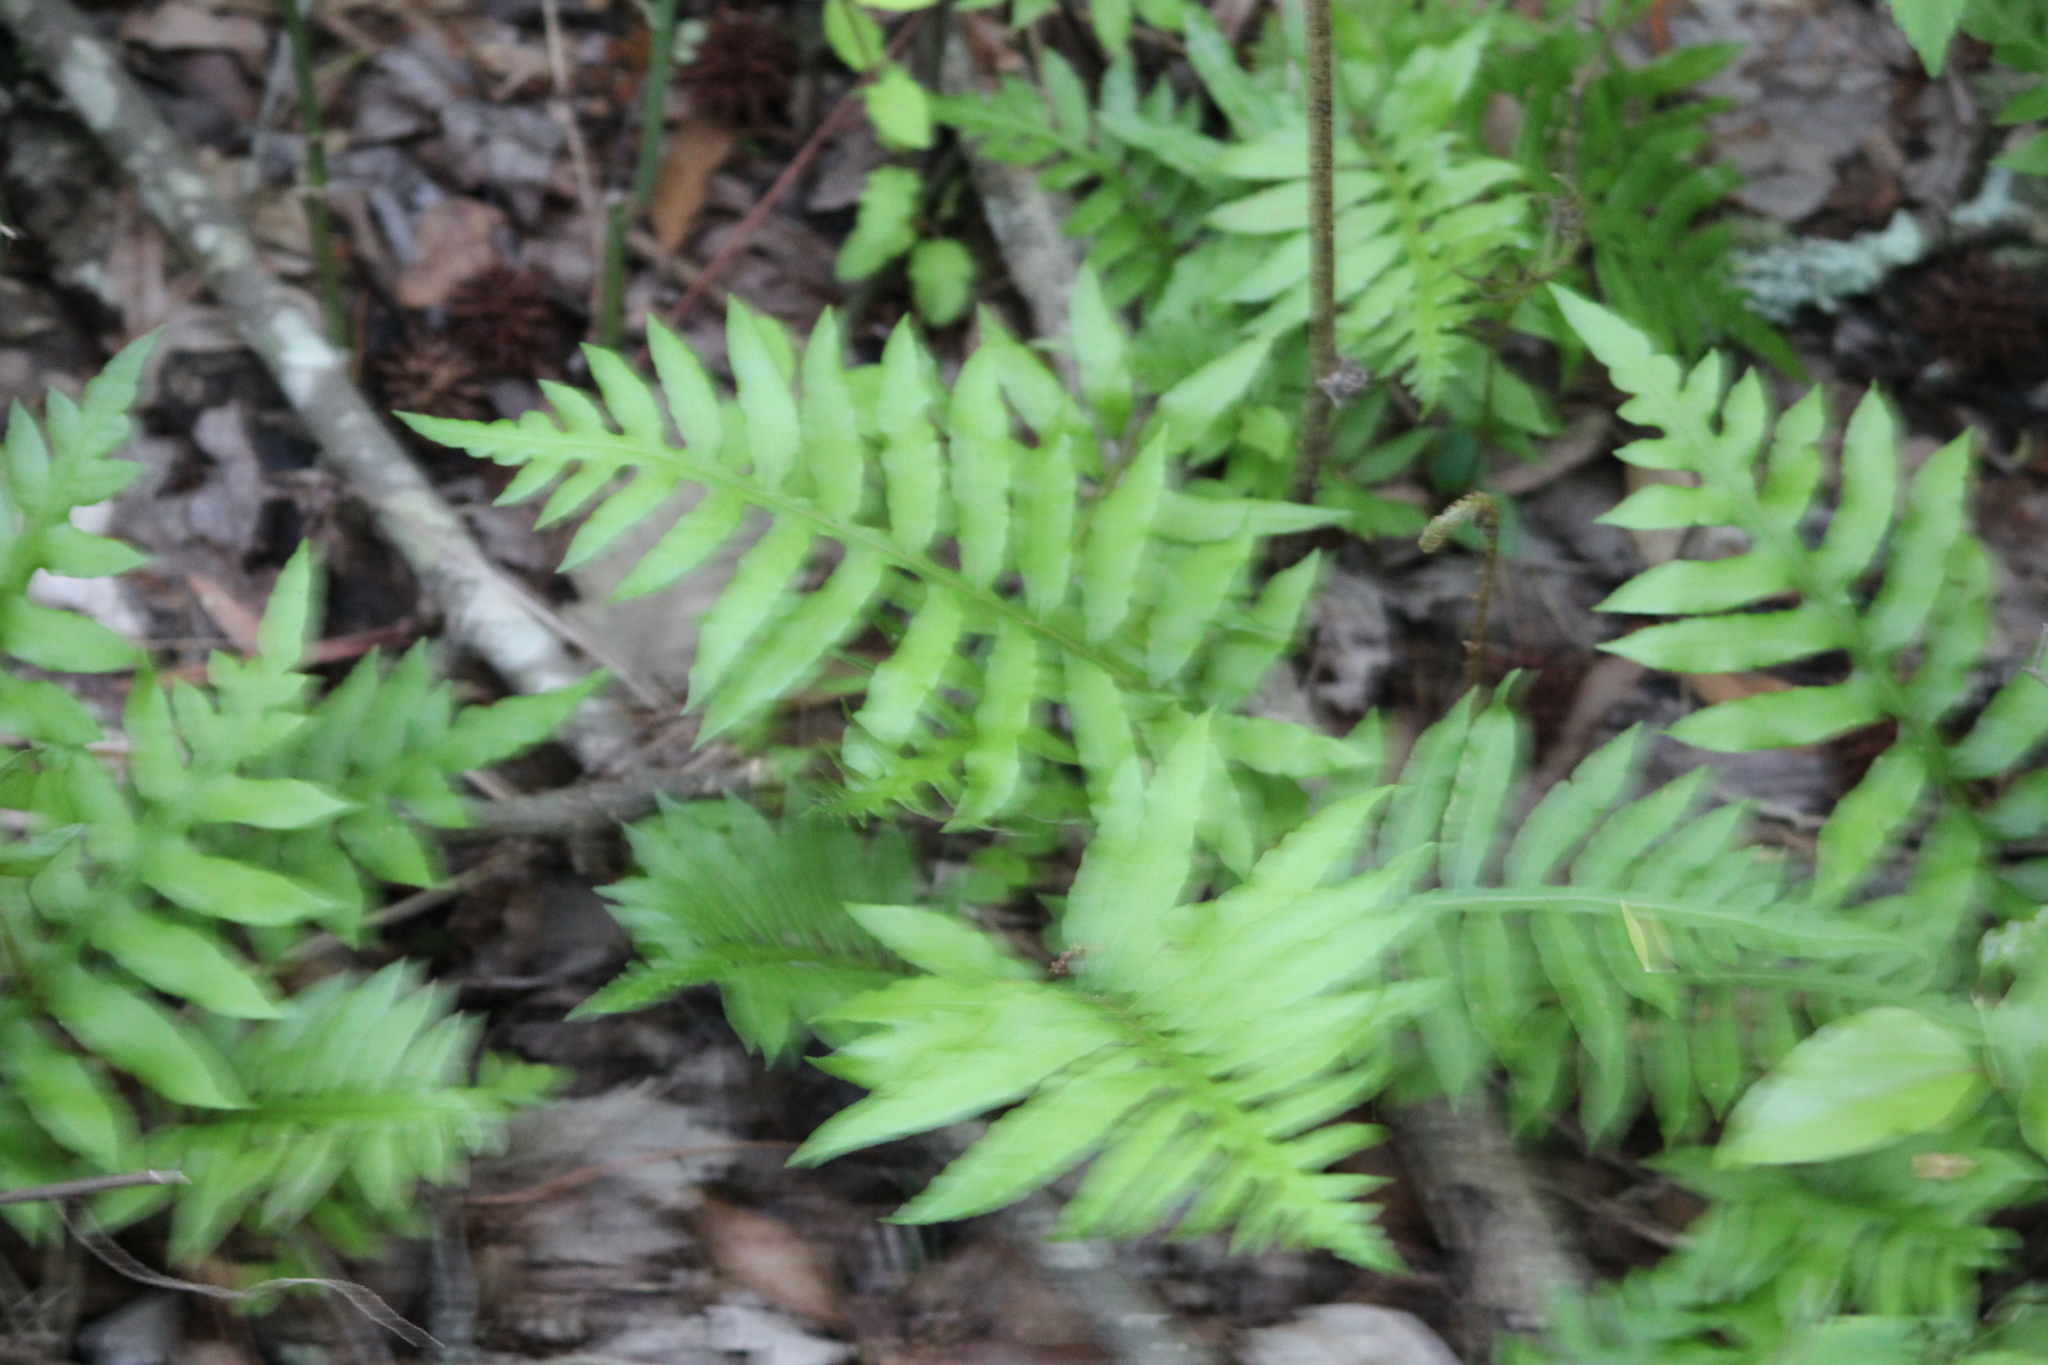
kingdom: Plantae
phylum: Tracheophyta
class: Polypodiopsida
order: Polypodiales
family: Blechnaceae
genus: Lorinseria
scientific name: Lorinseria areolata
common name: Dwarf chain fern
